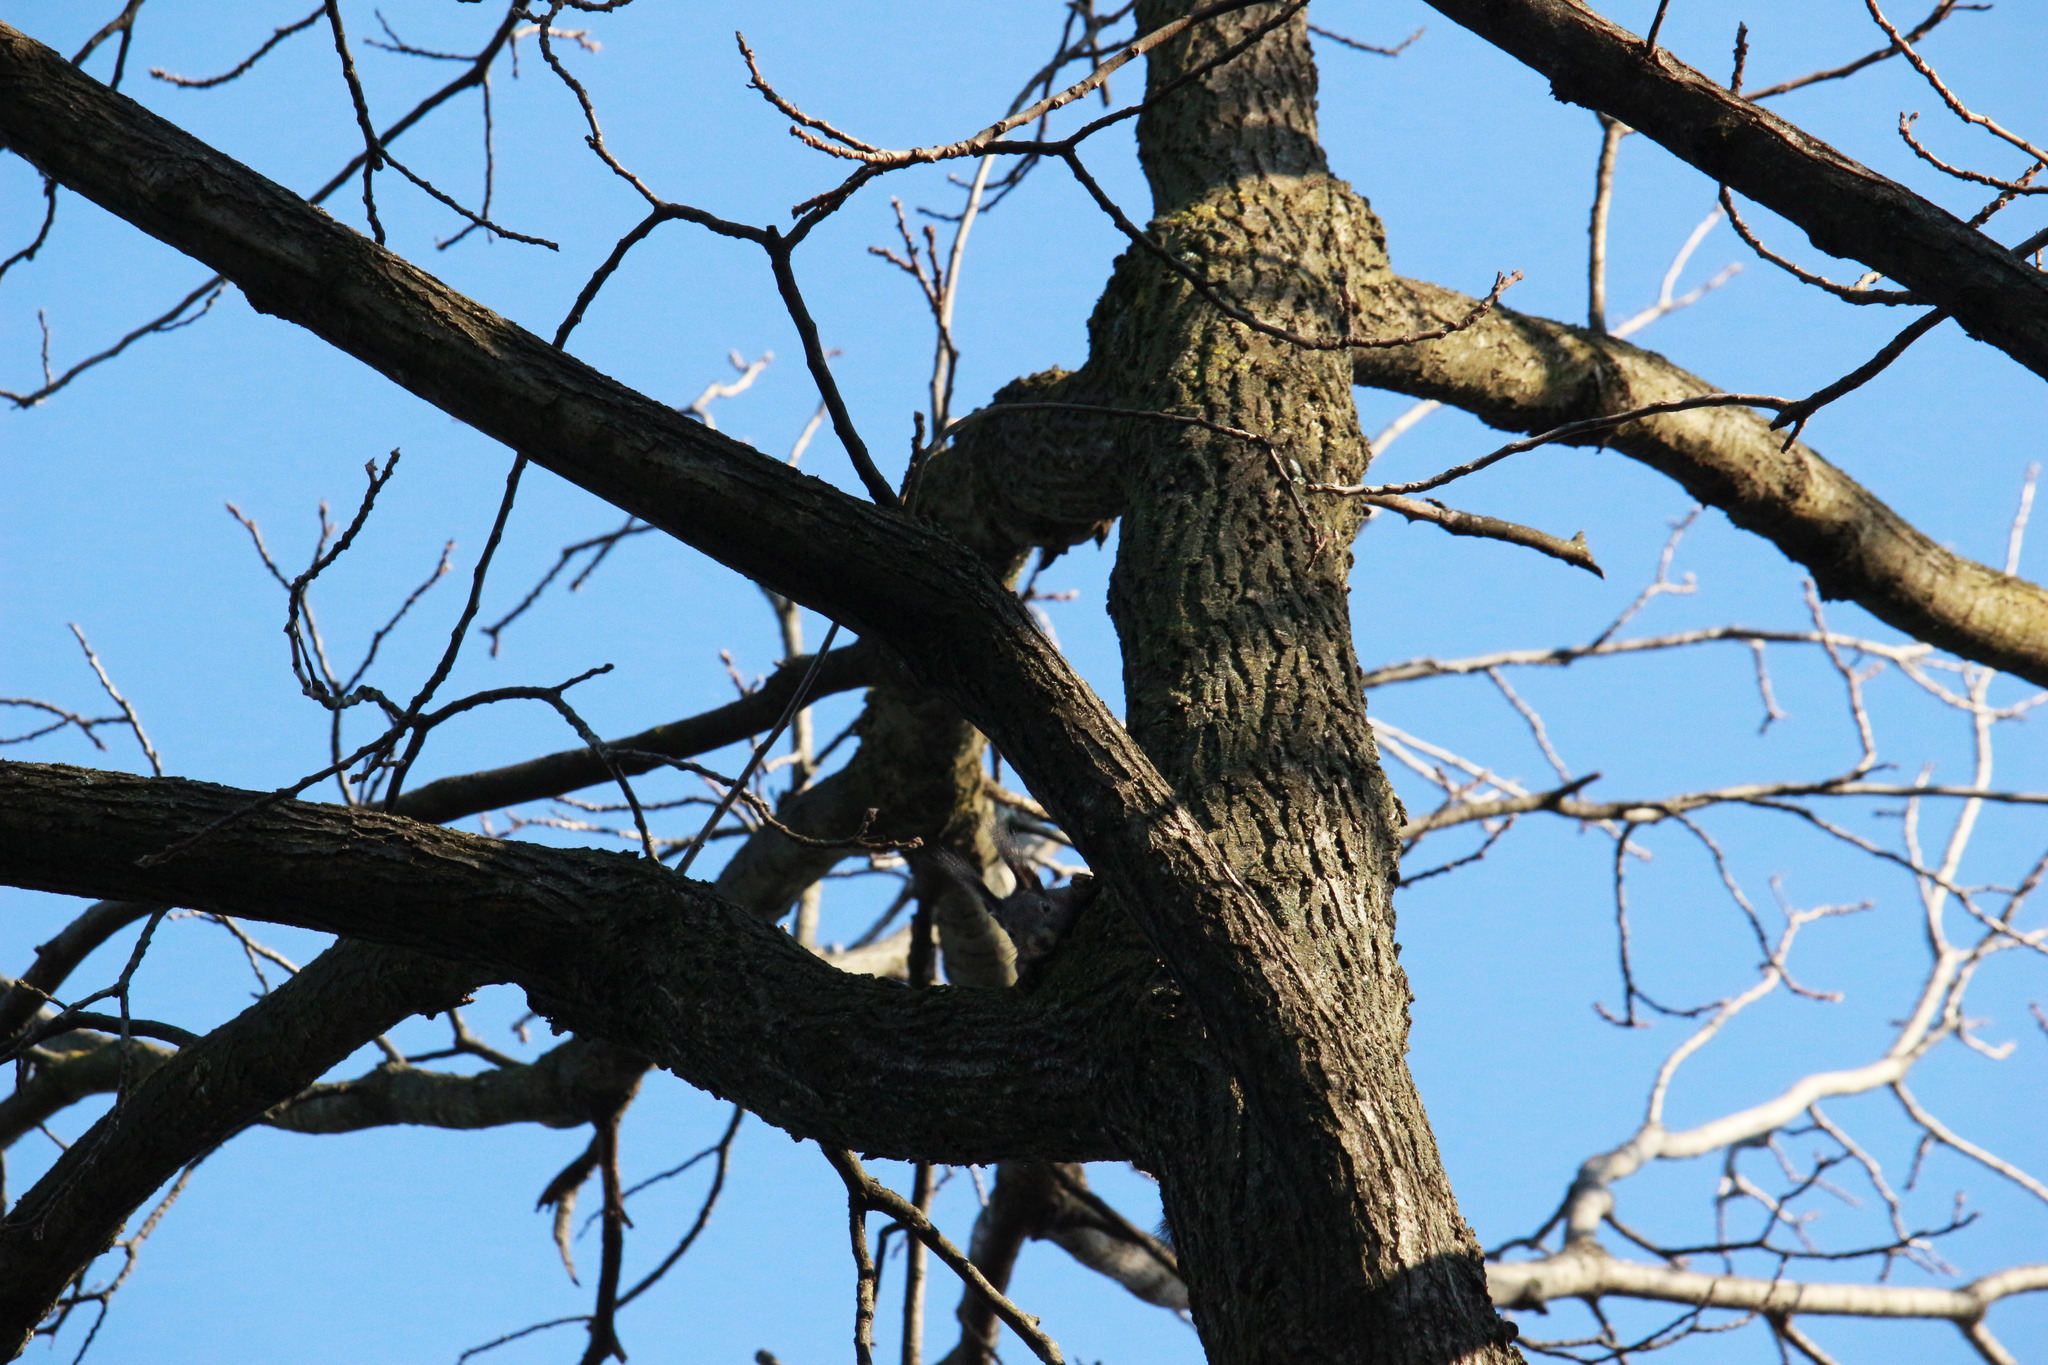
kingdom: Animalia
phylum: Chordata
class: Mammalia
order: Rodentia
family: Sciuridae
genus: Sciurus
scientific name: Sciurus vulgaris
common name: Eurasian red squirrel
